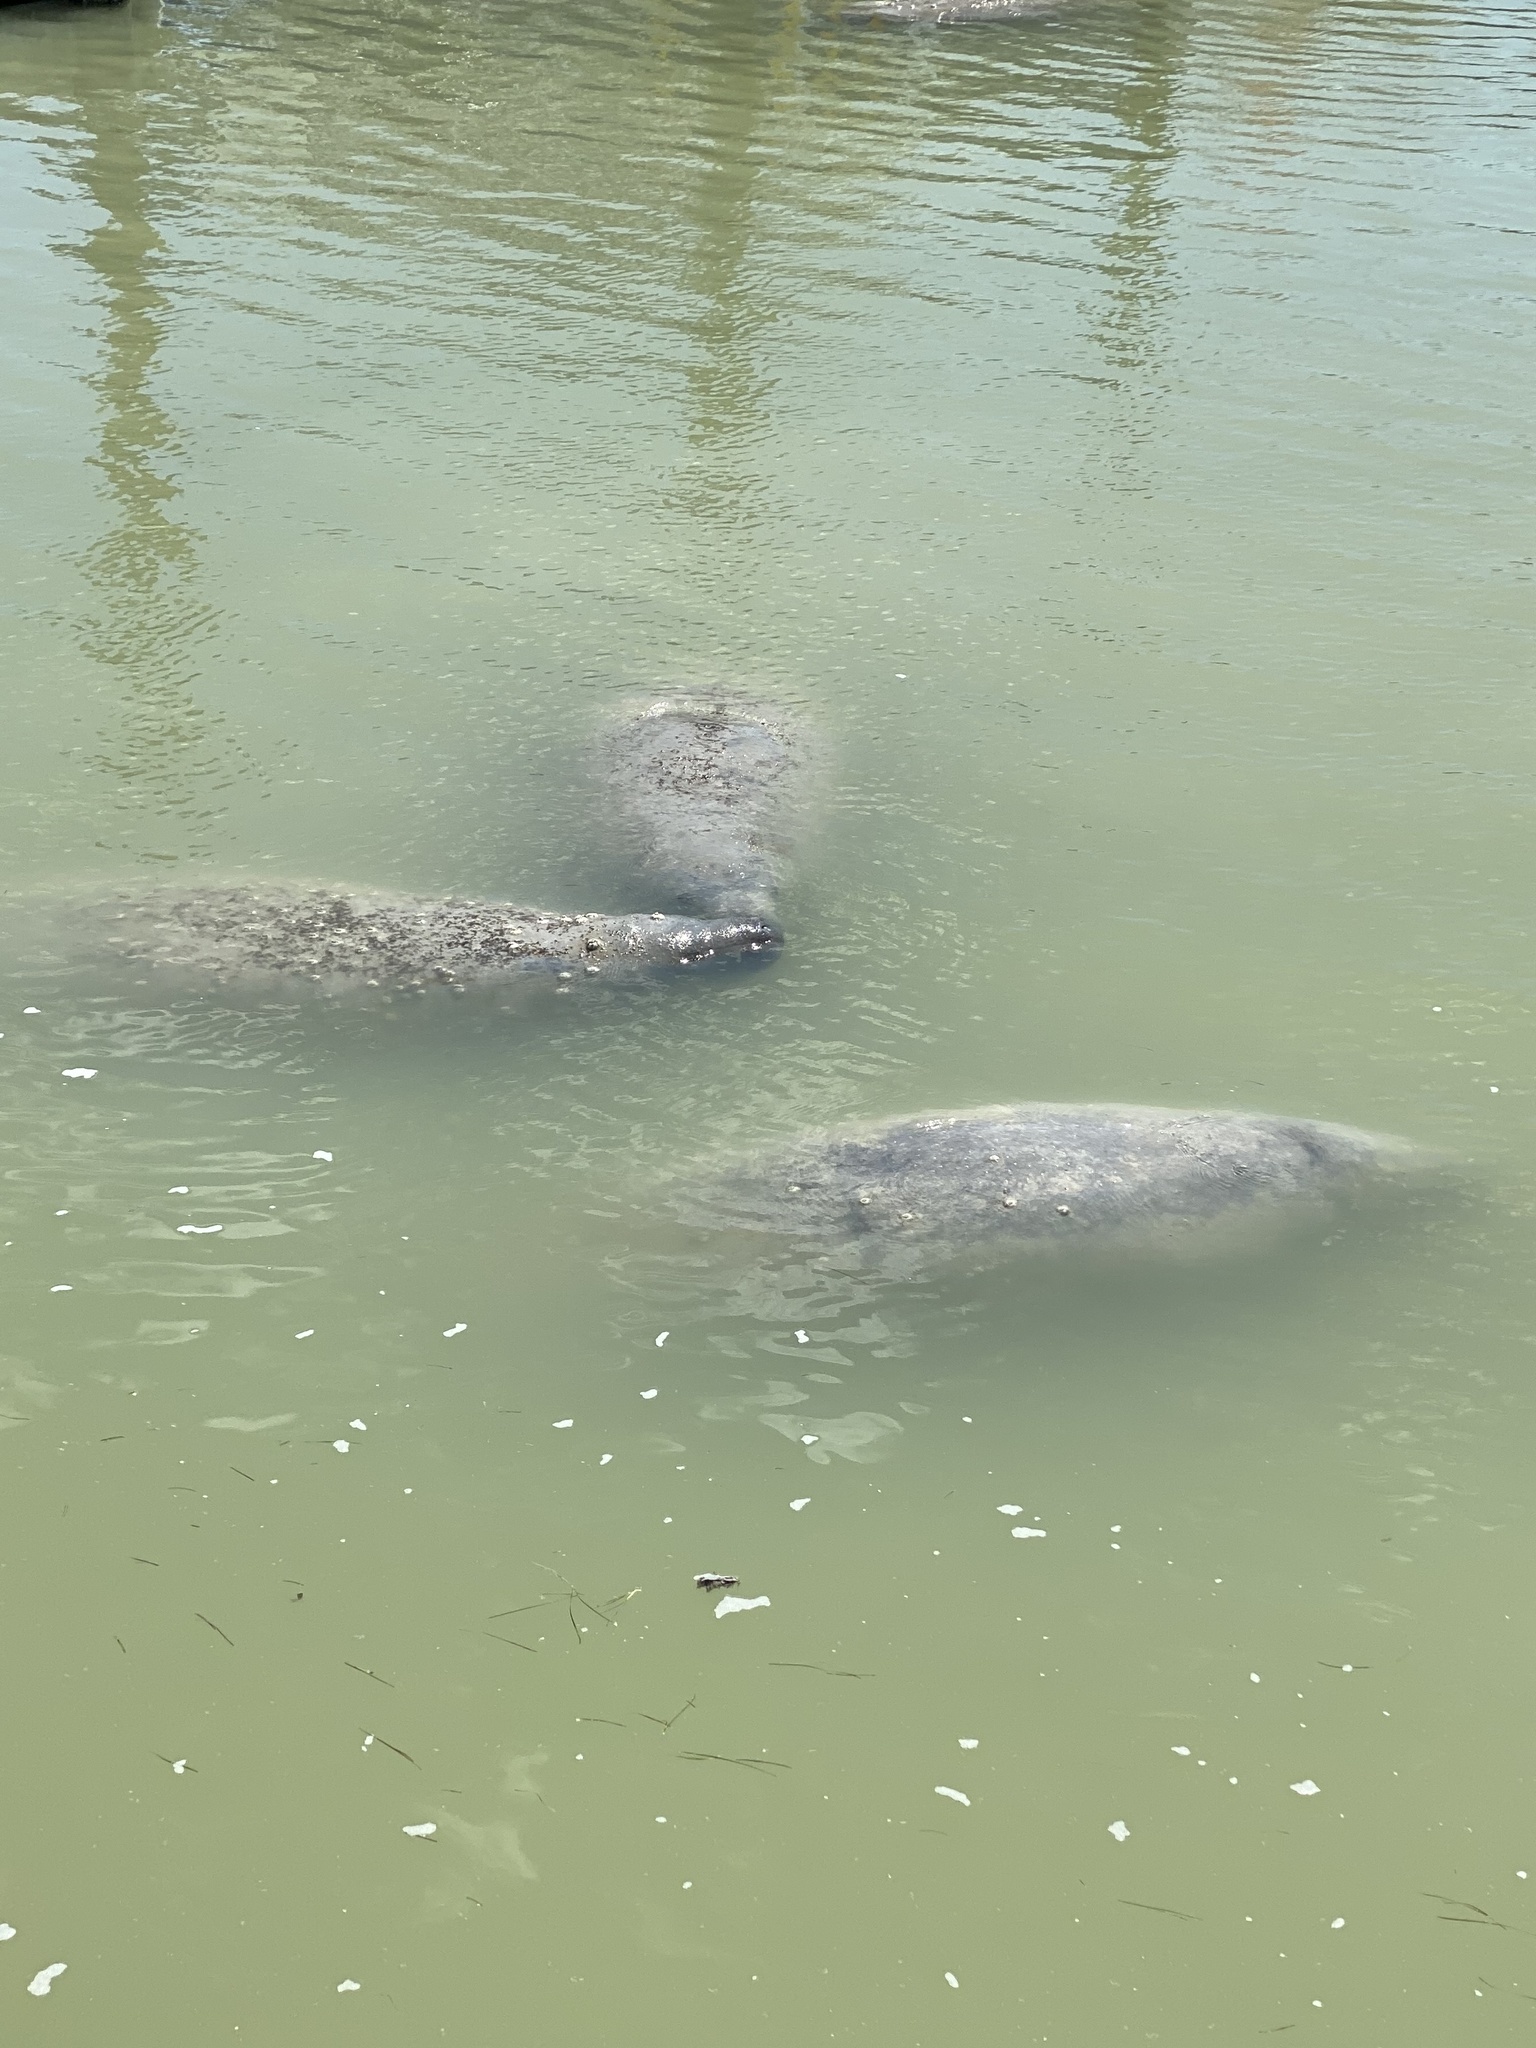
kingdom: Animalia
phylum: Chordata
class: Mammalia
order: Sirenia
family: Trichechidae
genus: Trichechus
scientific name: Trichechus manatus
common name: West indian manatee
